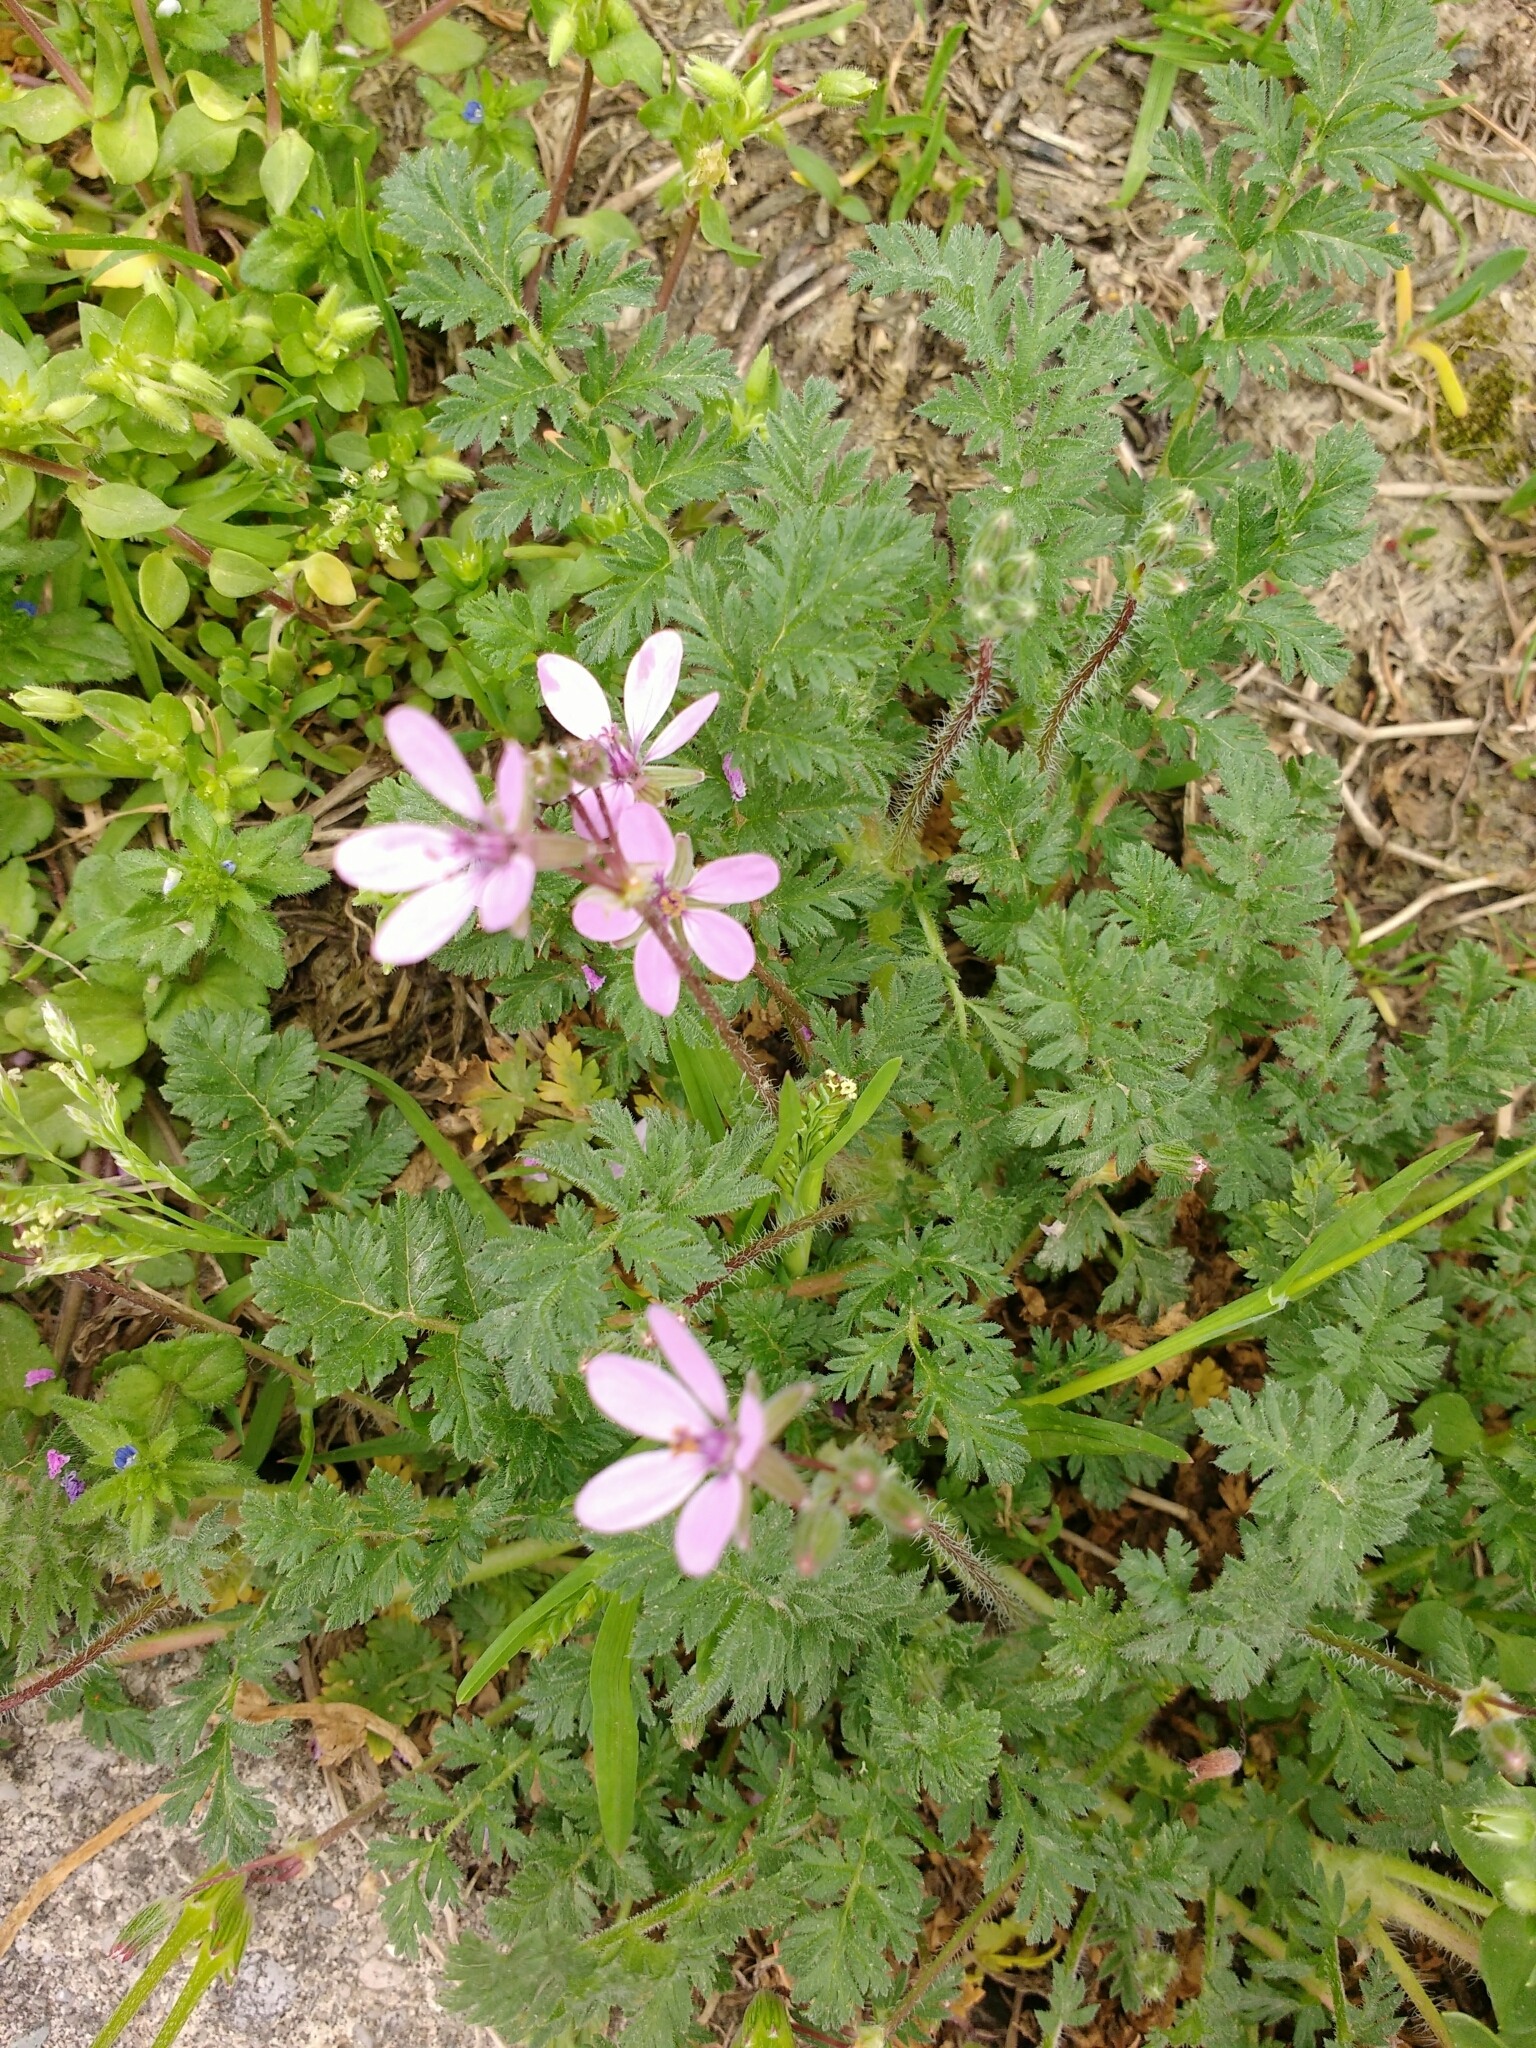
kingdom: Plantae
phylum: Tracheophyta
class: Magnoliopsida
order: Geraniales
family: Geraniaceae
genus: Erodium
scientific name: Erodium cicutarium
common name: Common stork's-bill
